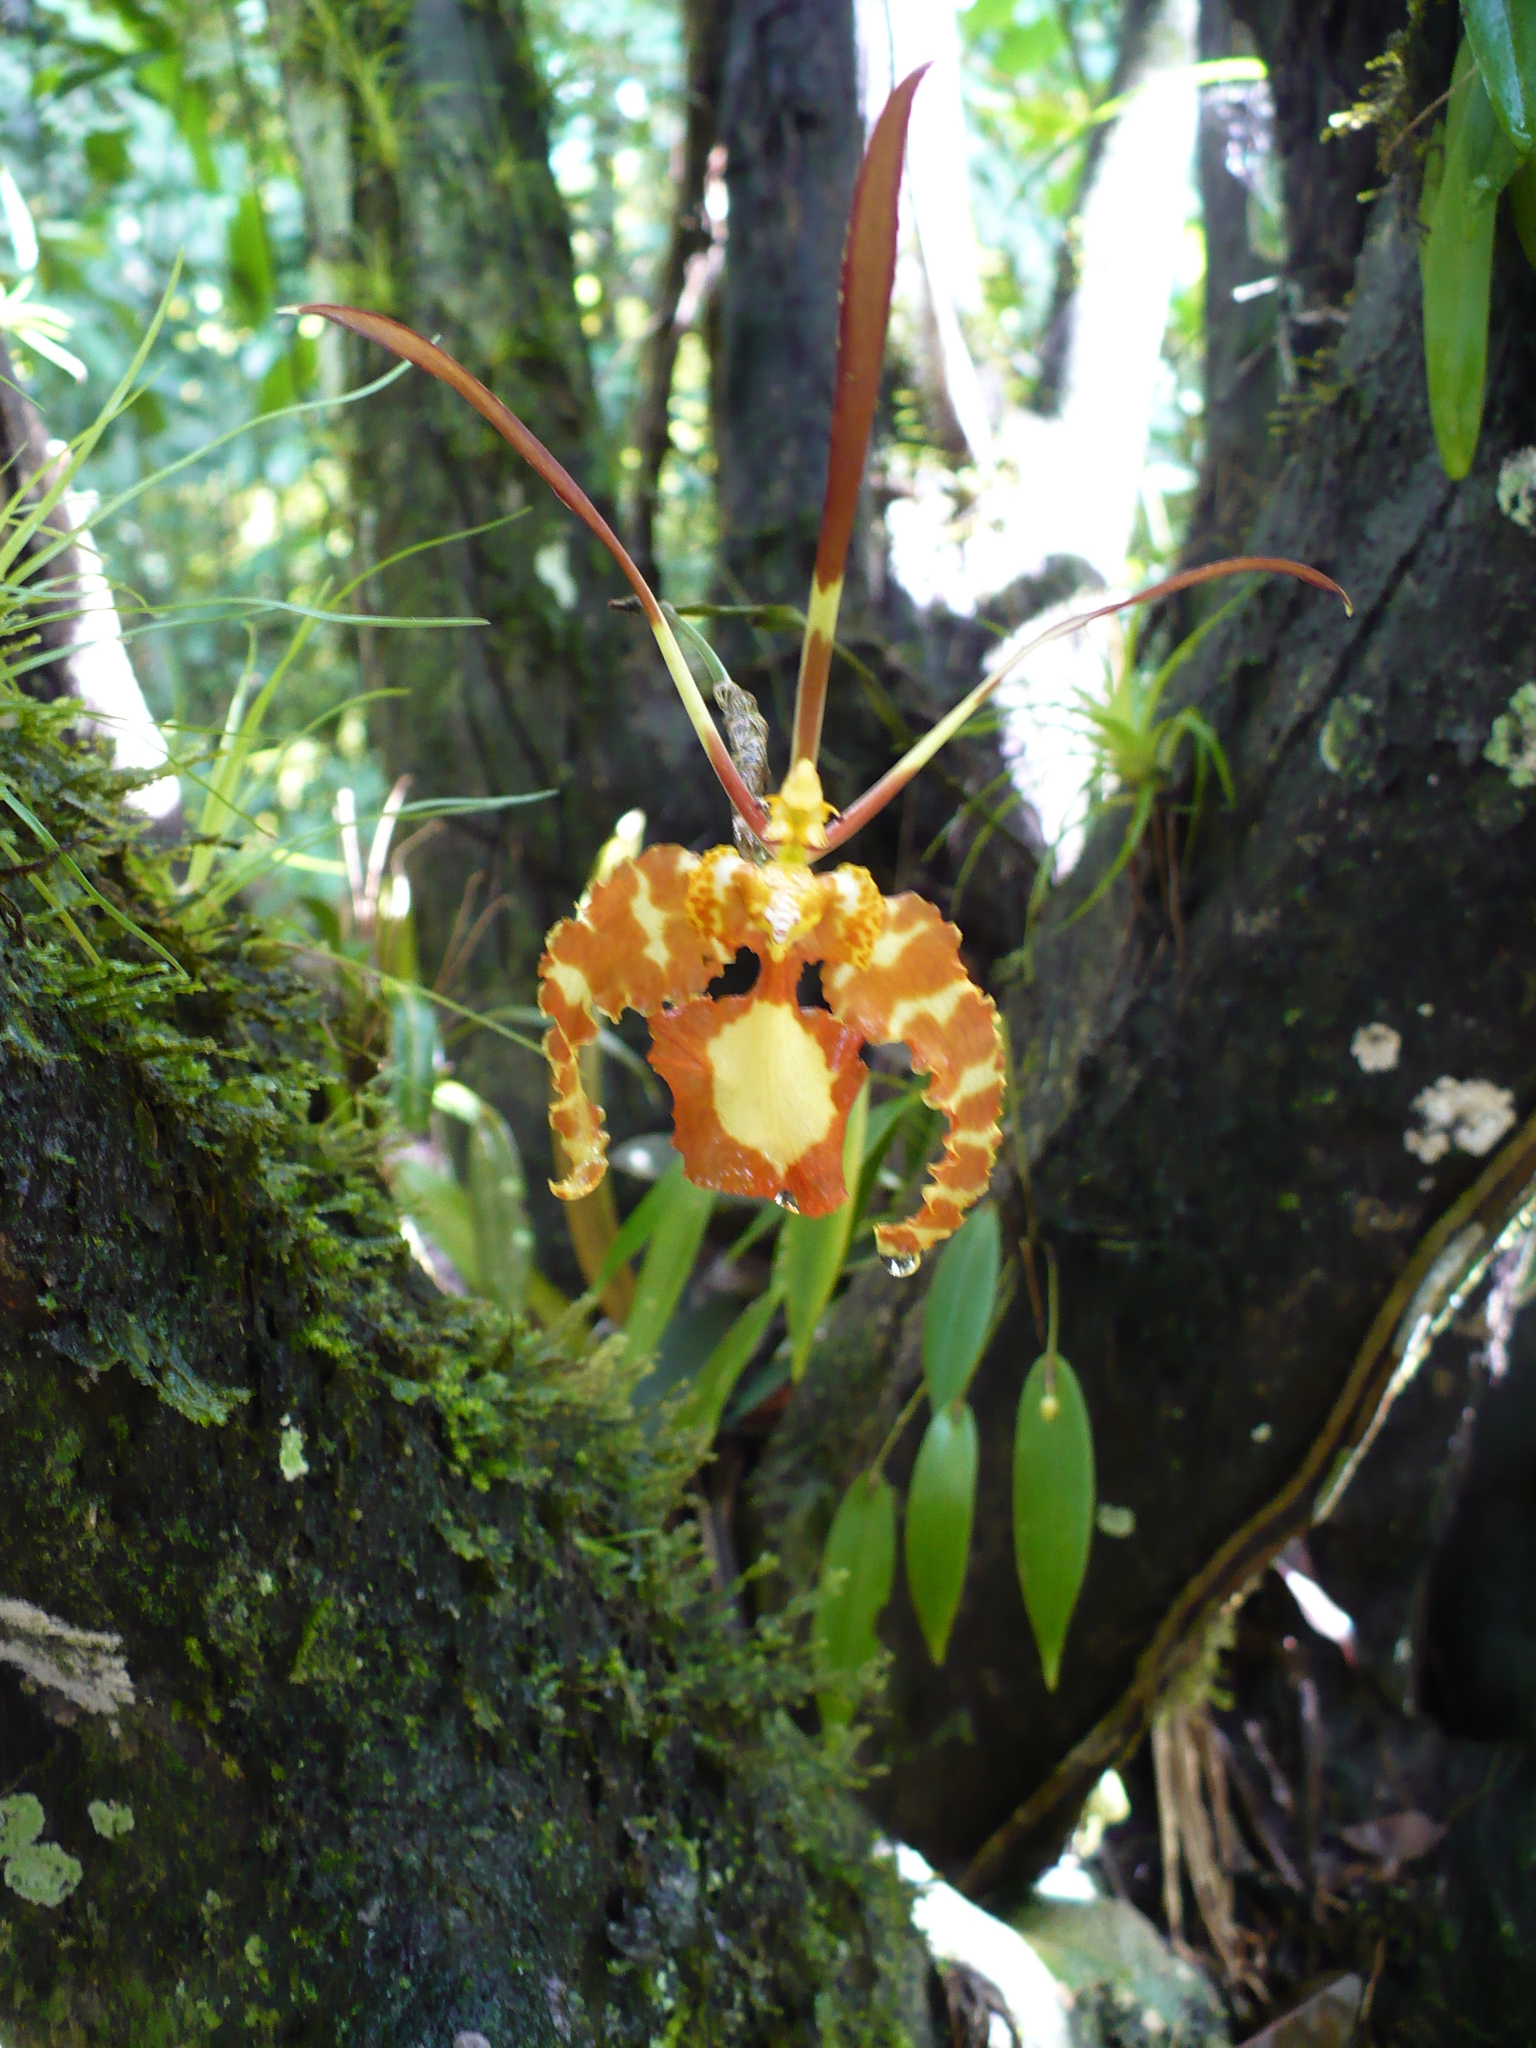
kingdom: Plantae
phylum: Tracheophyta
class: Liliopsida
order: Asparagales
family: Orchidaceae
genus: Psychopsis
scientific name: Psychopsis papilio
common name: Butterfly orchid
